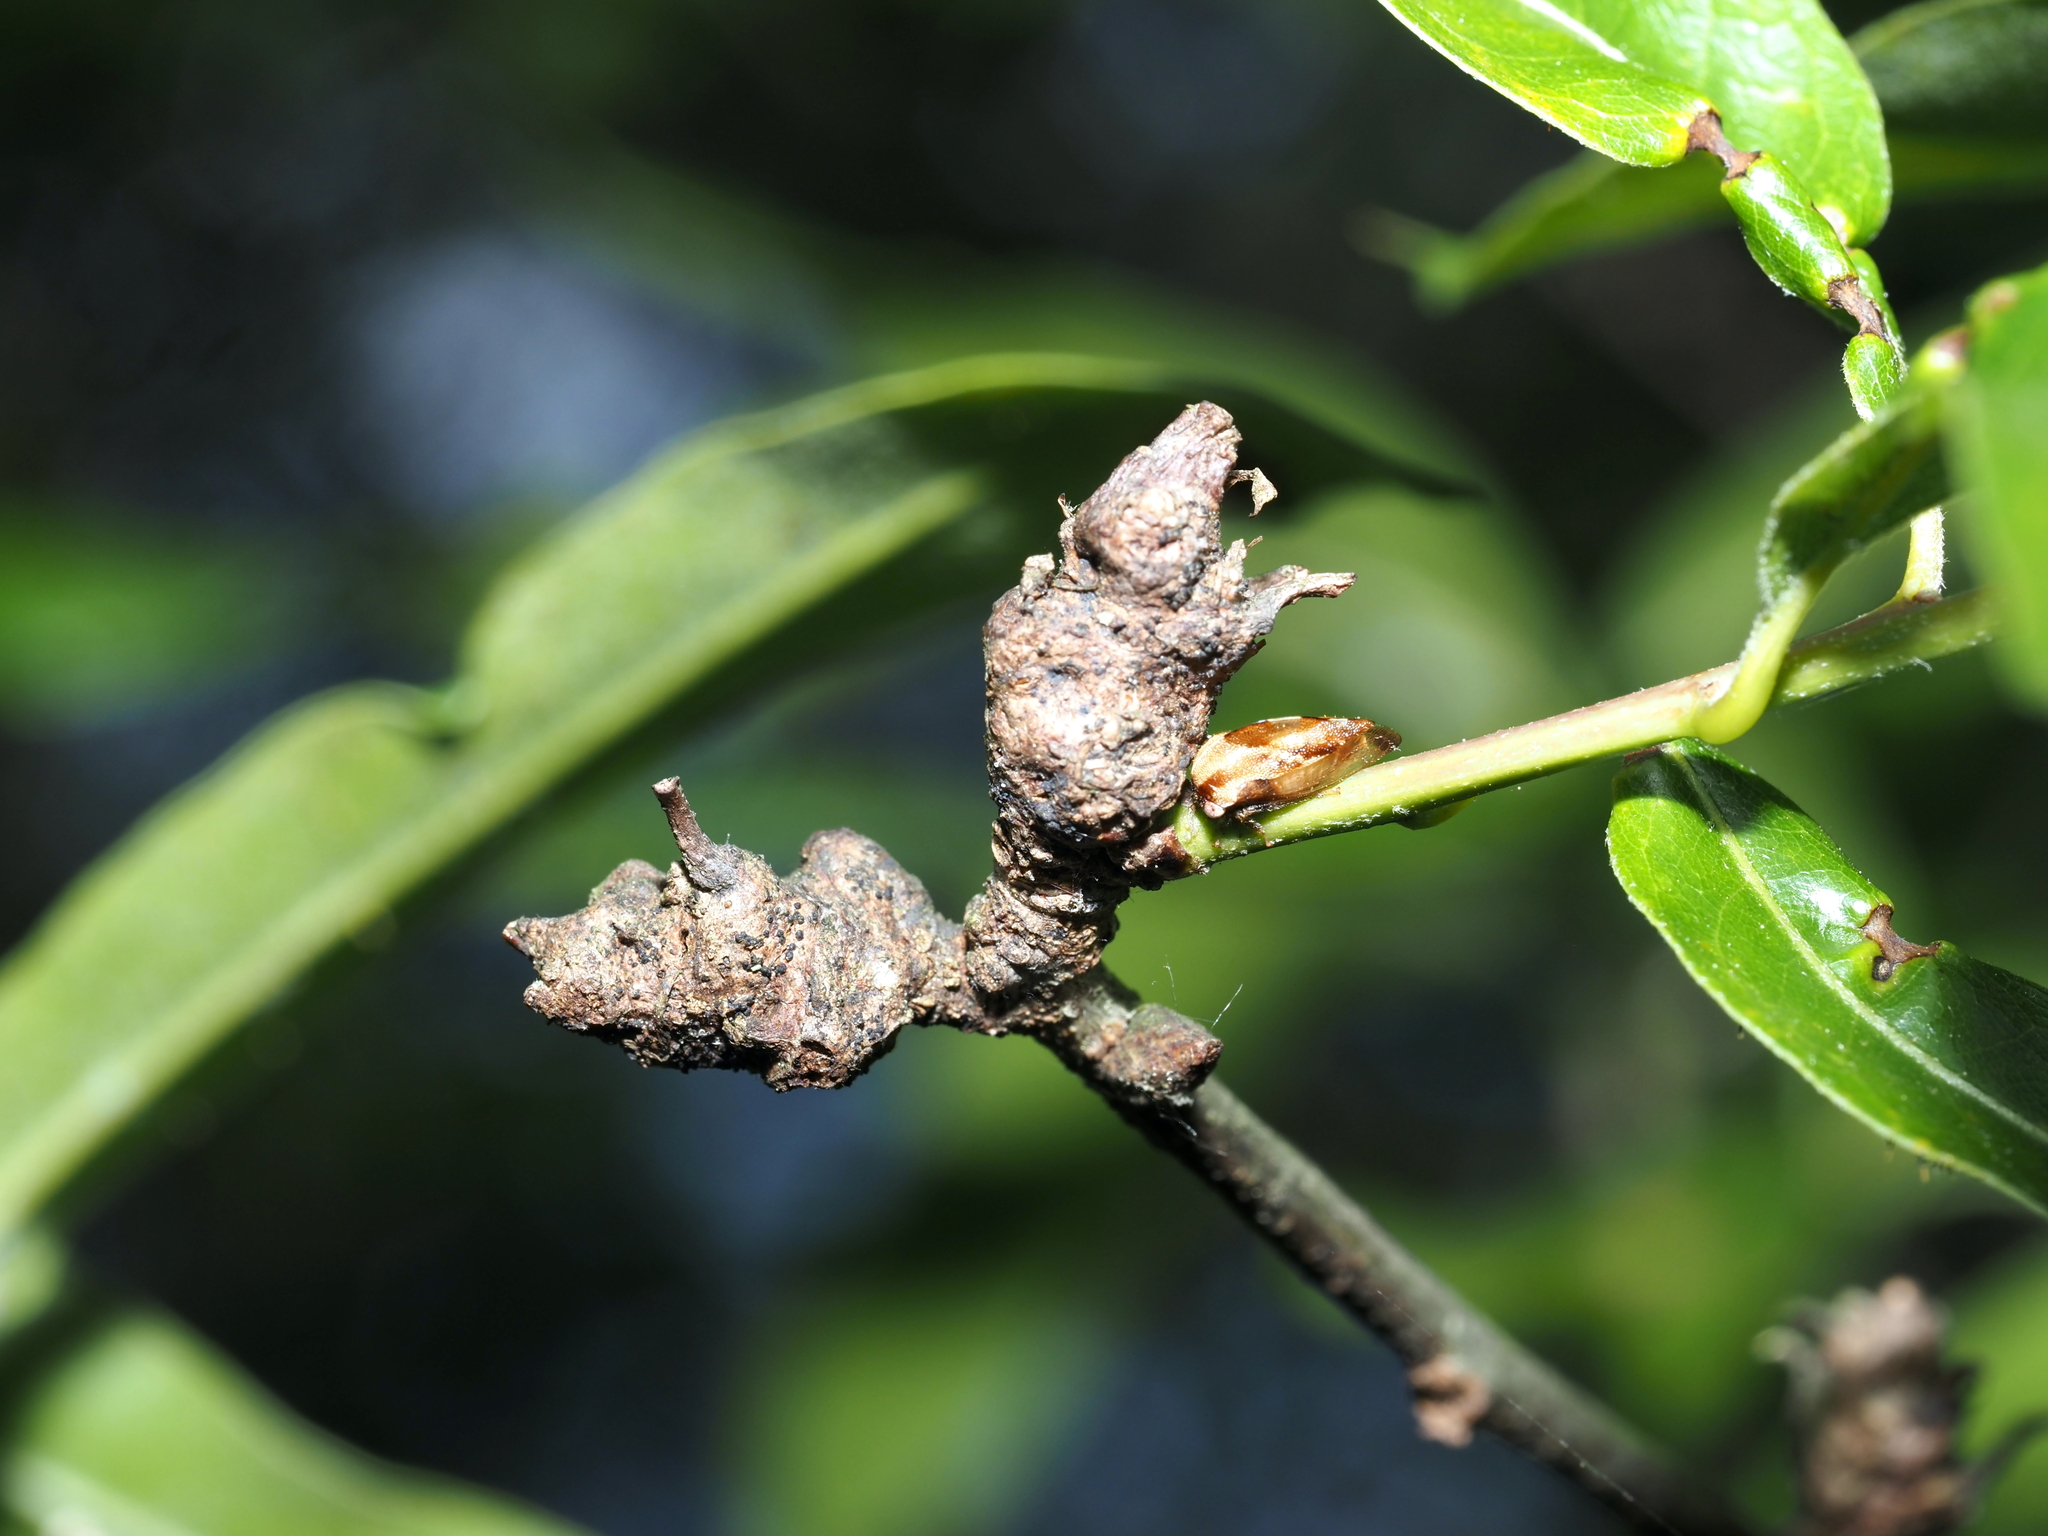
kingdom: Animalia
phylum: Arthropoda
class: Insecta
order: Hymenoptera
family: Cynipidae
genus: Callirhytis
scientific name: Callirhytis
